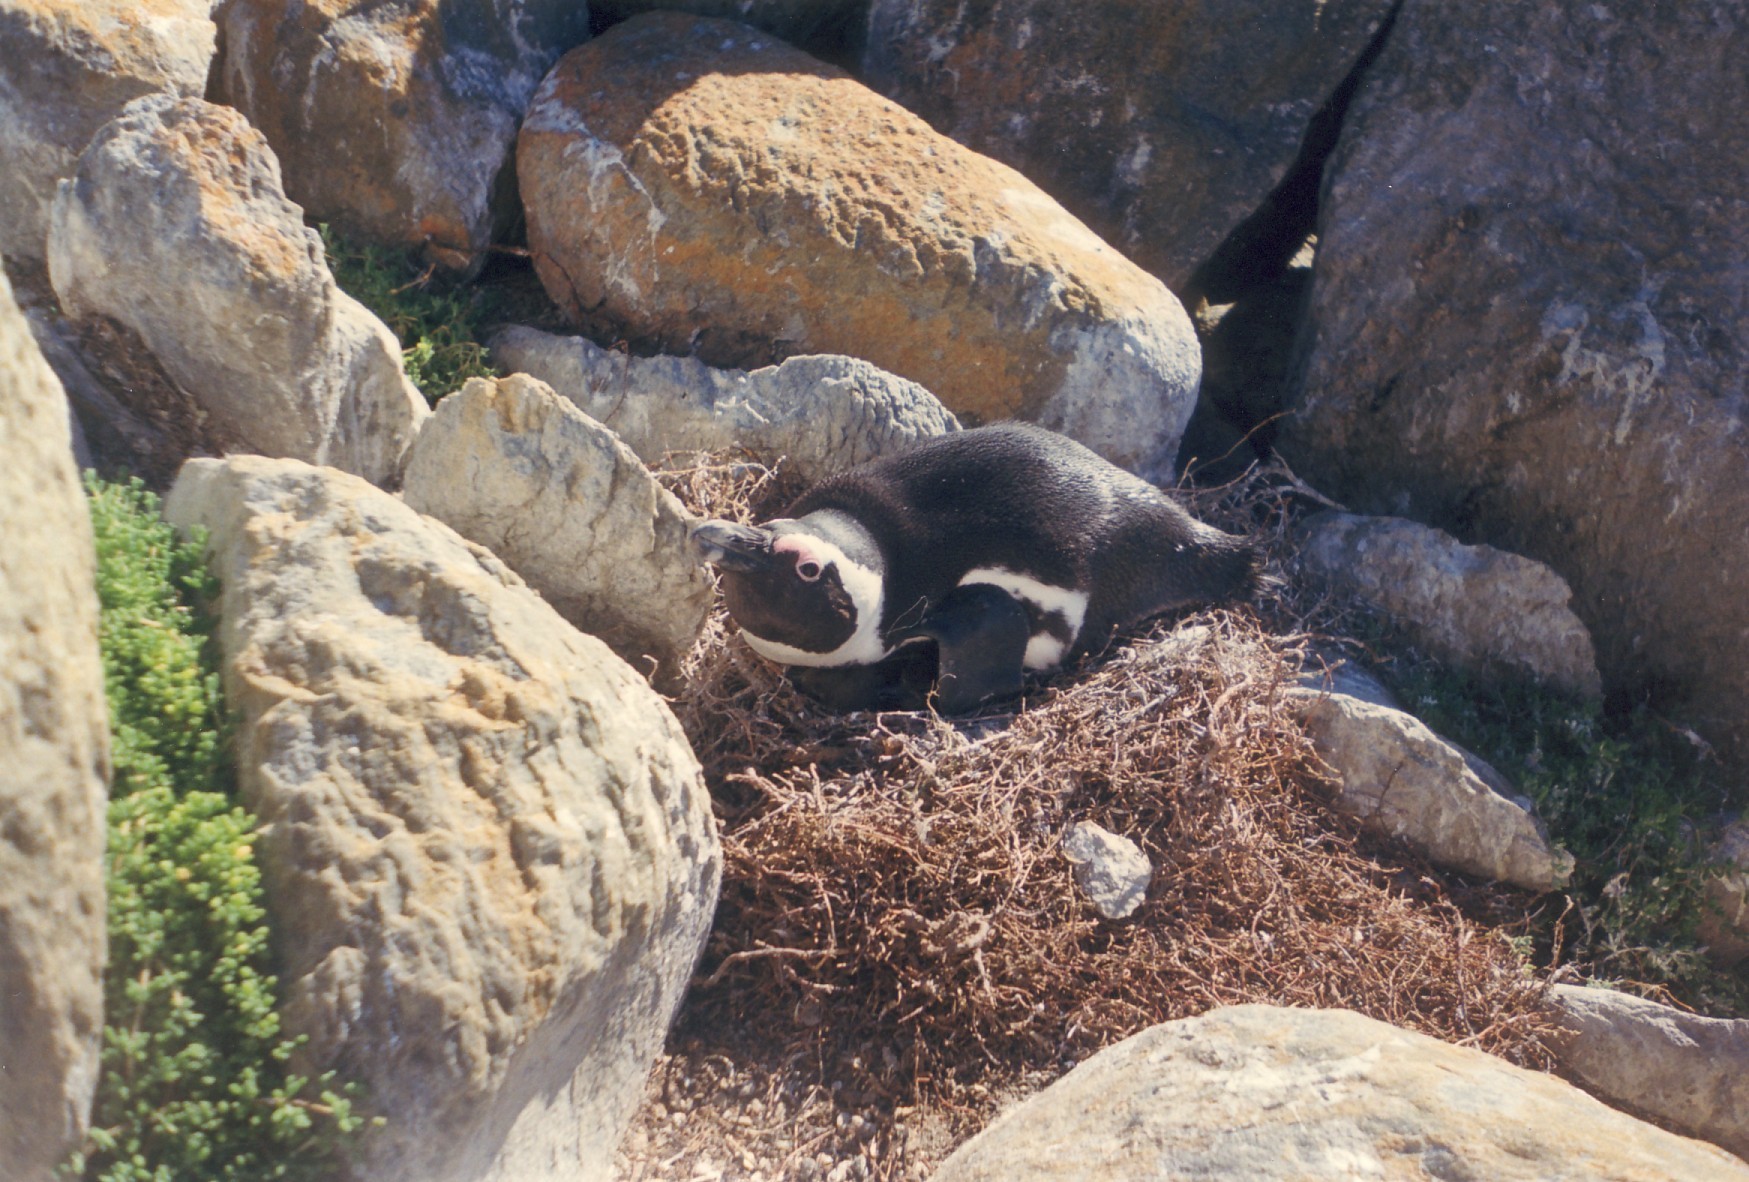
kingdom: Animalia
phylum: Chordata
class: Aves
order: Sphenisciformes
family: Spheniscidae
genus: Spheniscus
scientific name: Spheniscus demersus
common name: African penguin
